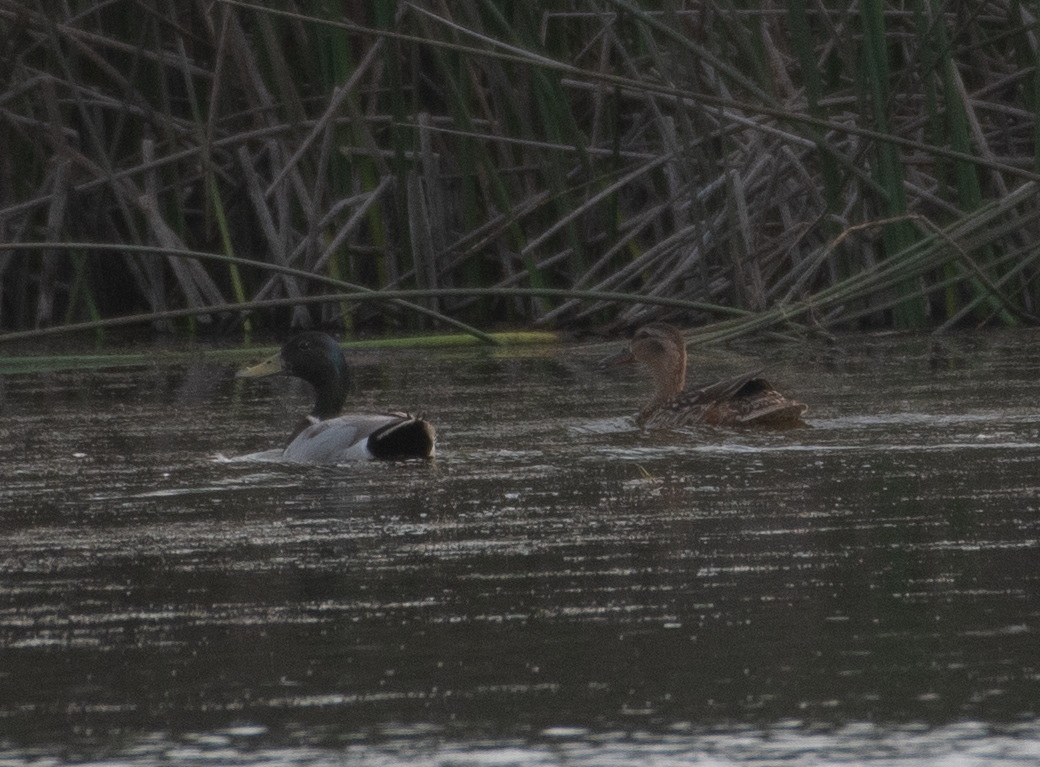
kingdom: Animalia
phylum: Chordata
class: Aves
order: Gruiformes
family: Rallidae
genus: Gallinula
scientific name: Gallinula chloropus
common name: Common moorhen
